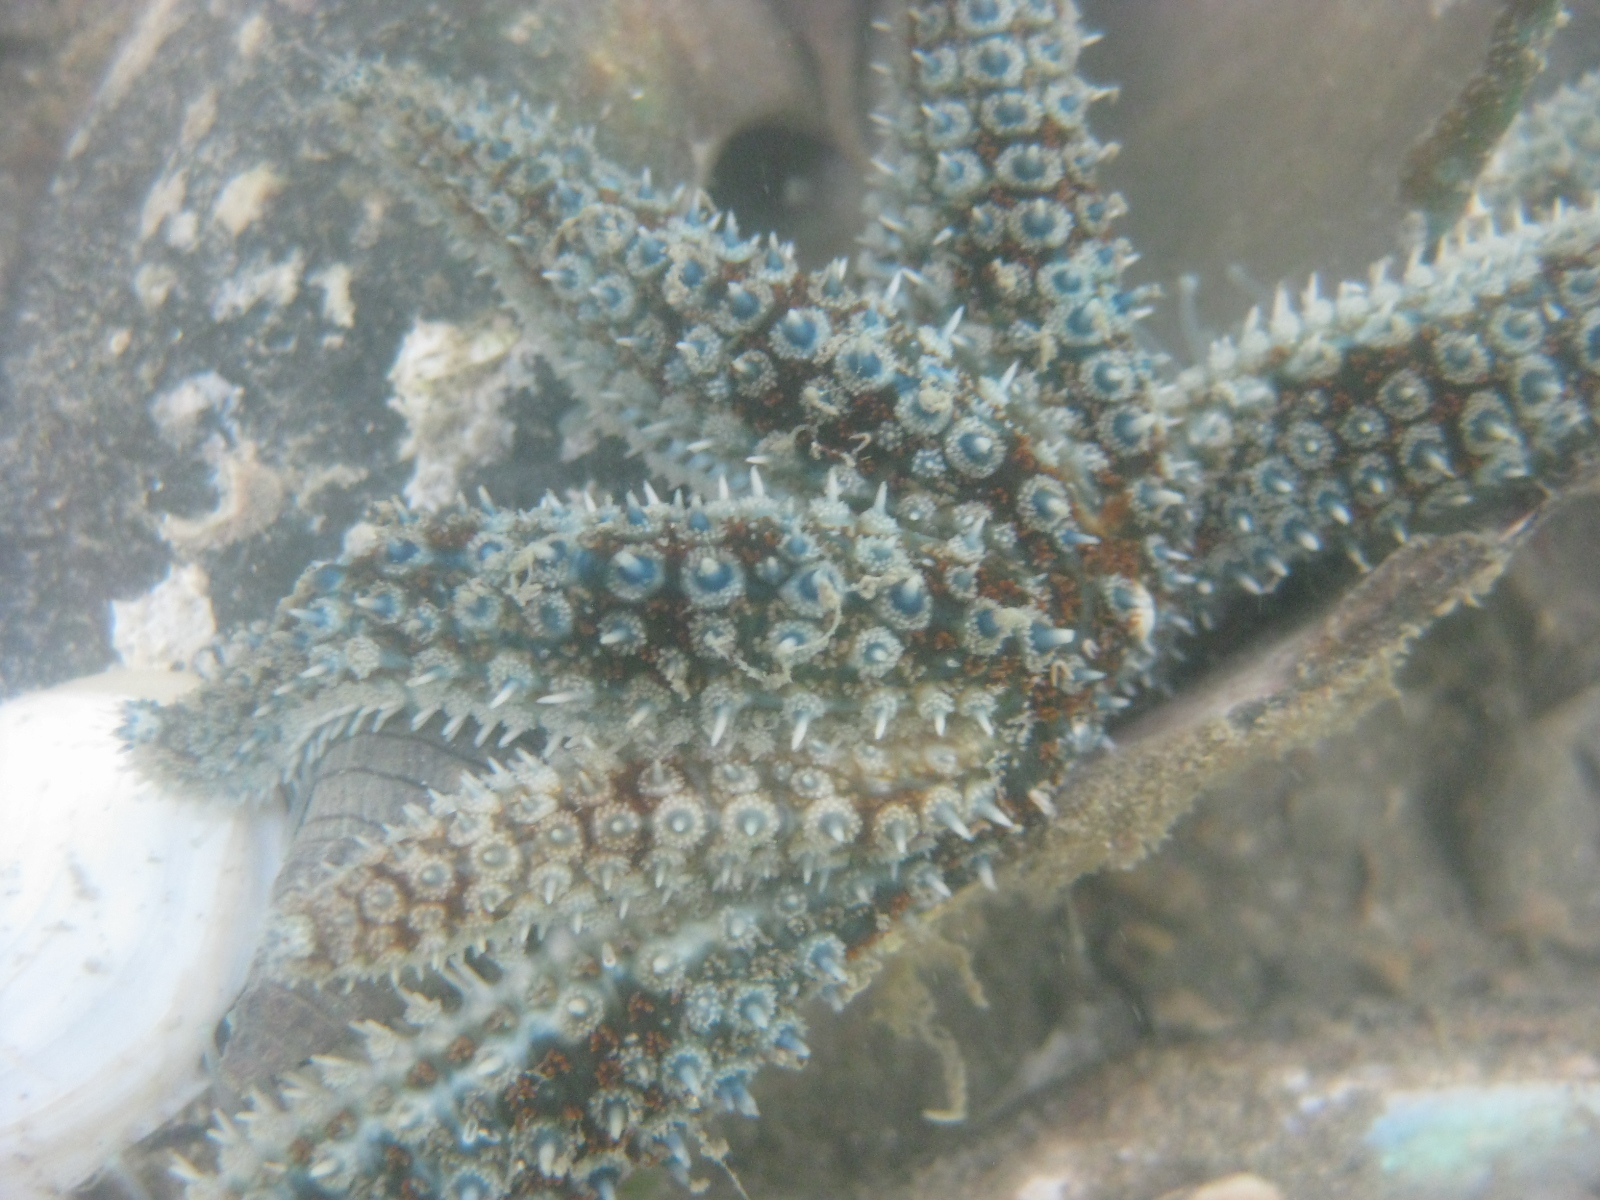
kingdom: Animalia
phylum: Echinodermata
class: Asteroidea
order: Forcipulatida
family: Asteriidae
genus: Coscinasterias
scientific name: Coscinasterias muricata
